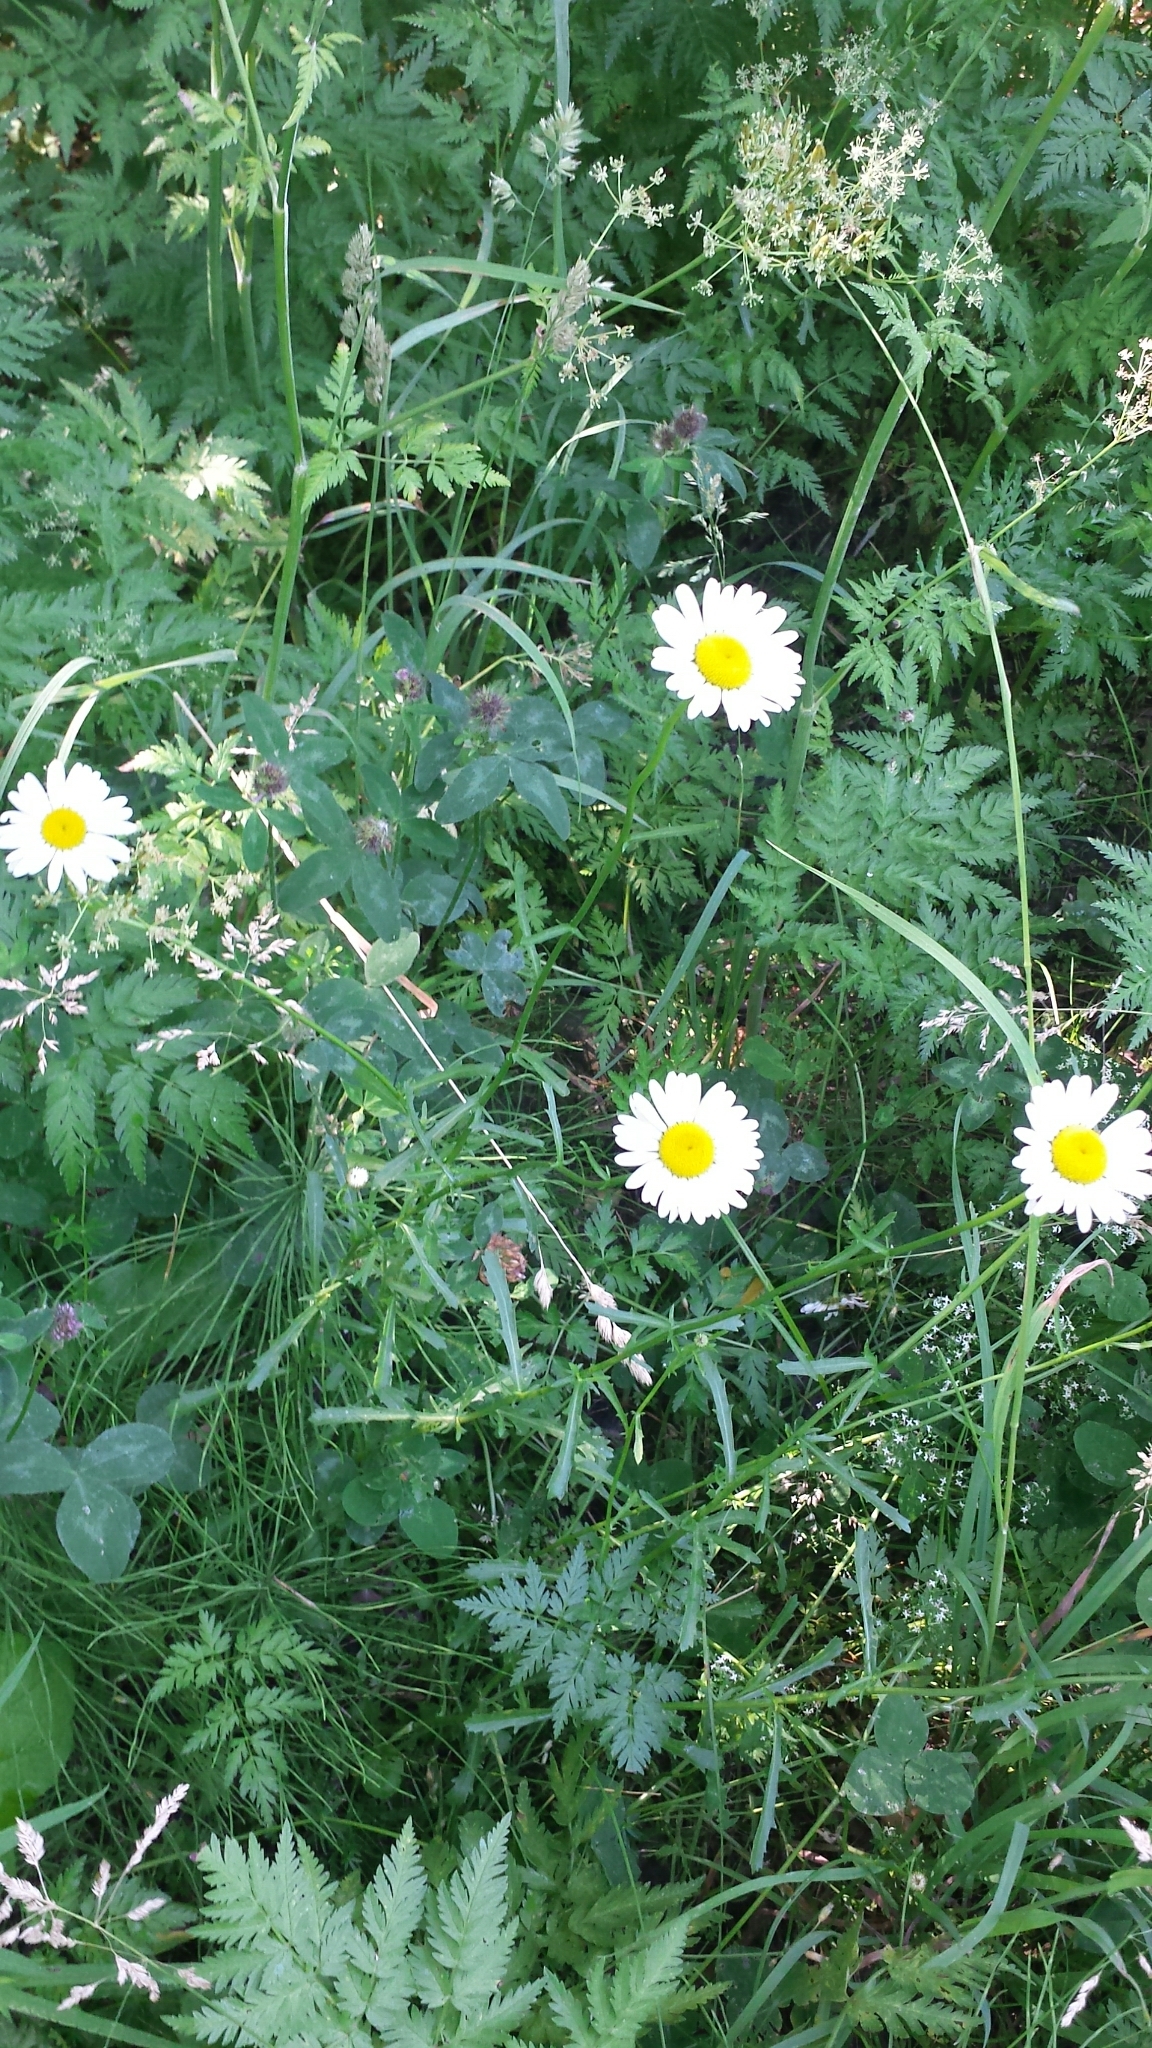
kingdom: Plantae
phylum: Tracheophyta
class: Magnoliopsida
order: Asterales
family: Asteraceae
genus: Leucanthemum
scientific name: Leucanthemum vulgare
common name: Oxeye daisy
